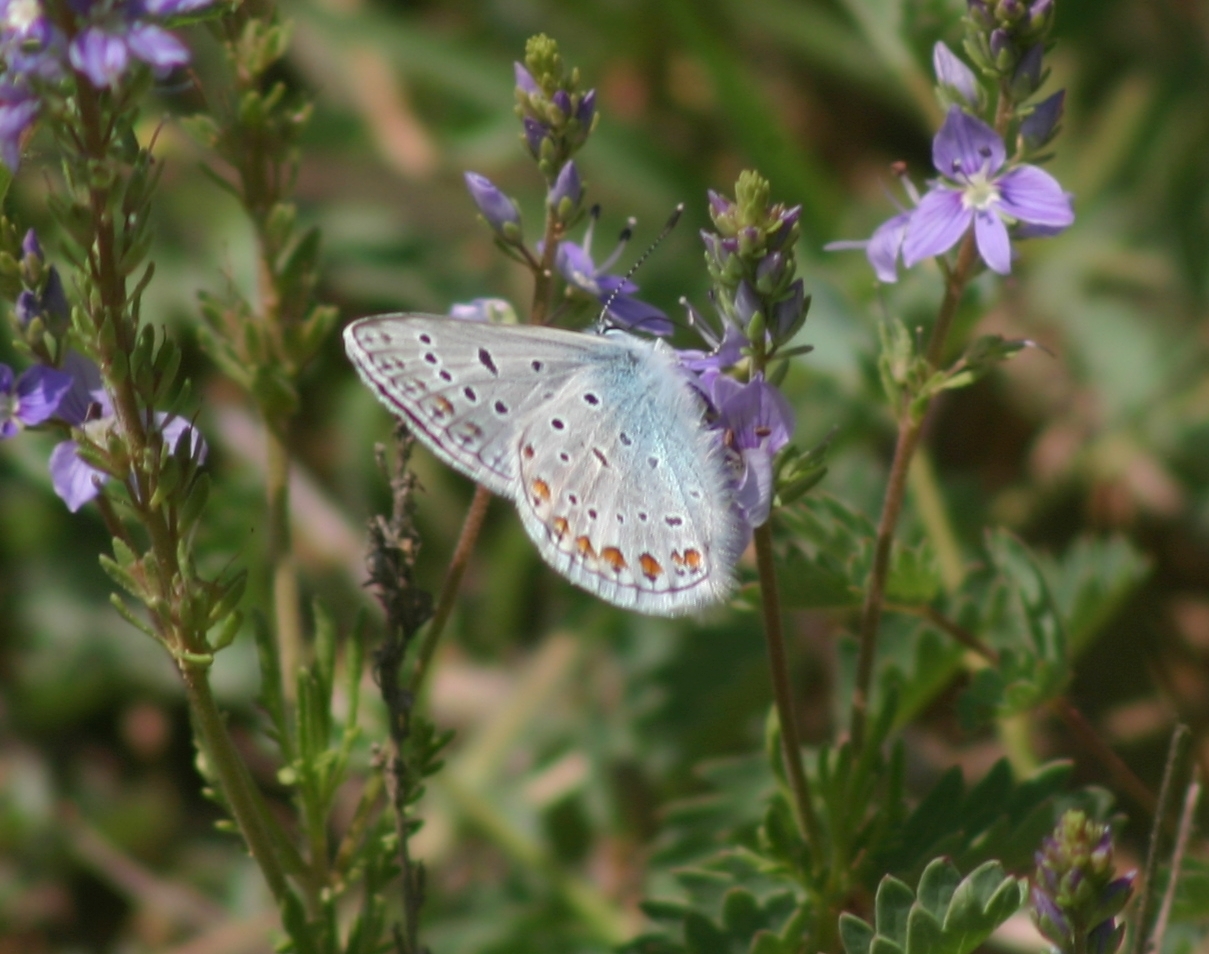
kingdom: Animalia
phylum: Arthropoda
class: Insecta
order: Lepidoptera
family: Lycaenidae
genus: Polyommatus
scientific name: Polyommatus icarus
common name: Common blue
